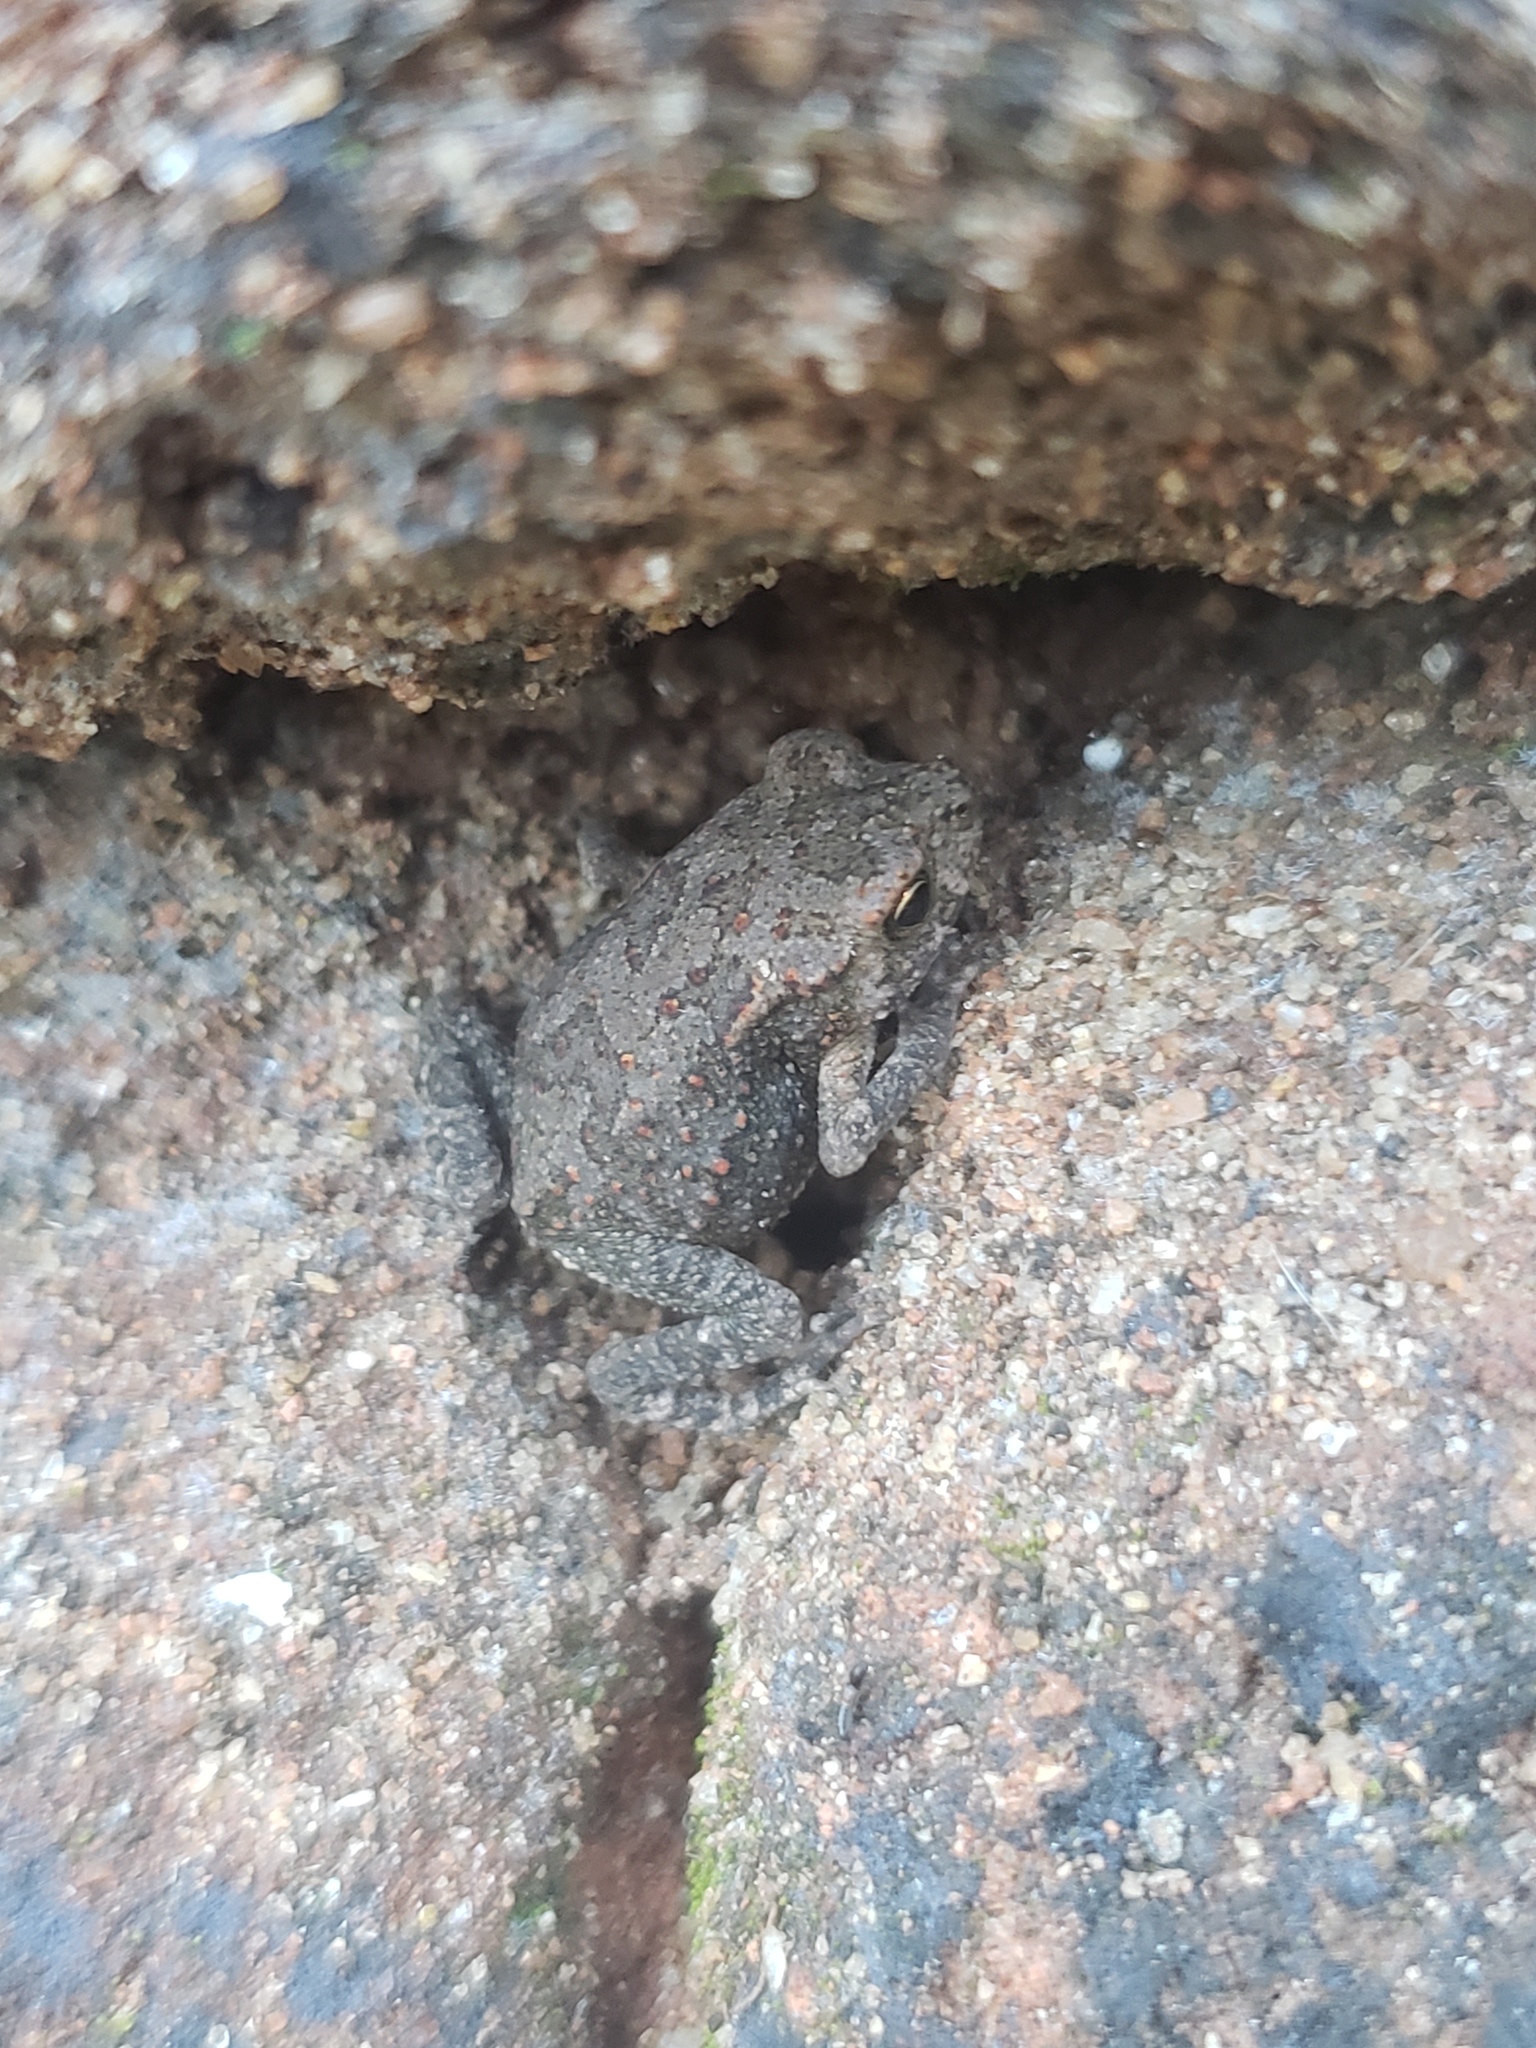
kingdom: Animalia
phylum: Chordata
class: Amphibia
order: Anura
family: Bufonidae
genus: Duttaphrynus
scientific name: Duttaphrynus melanostictus
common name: Common sunda toad
